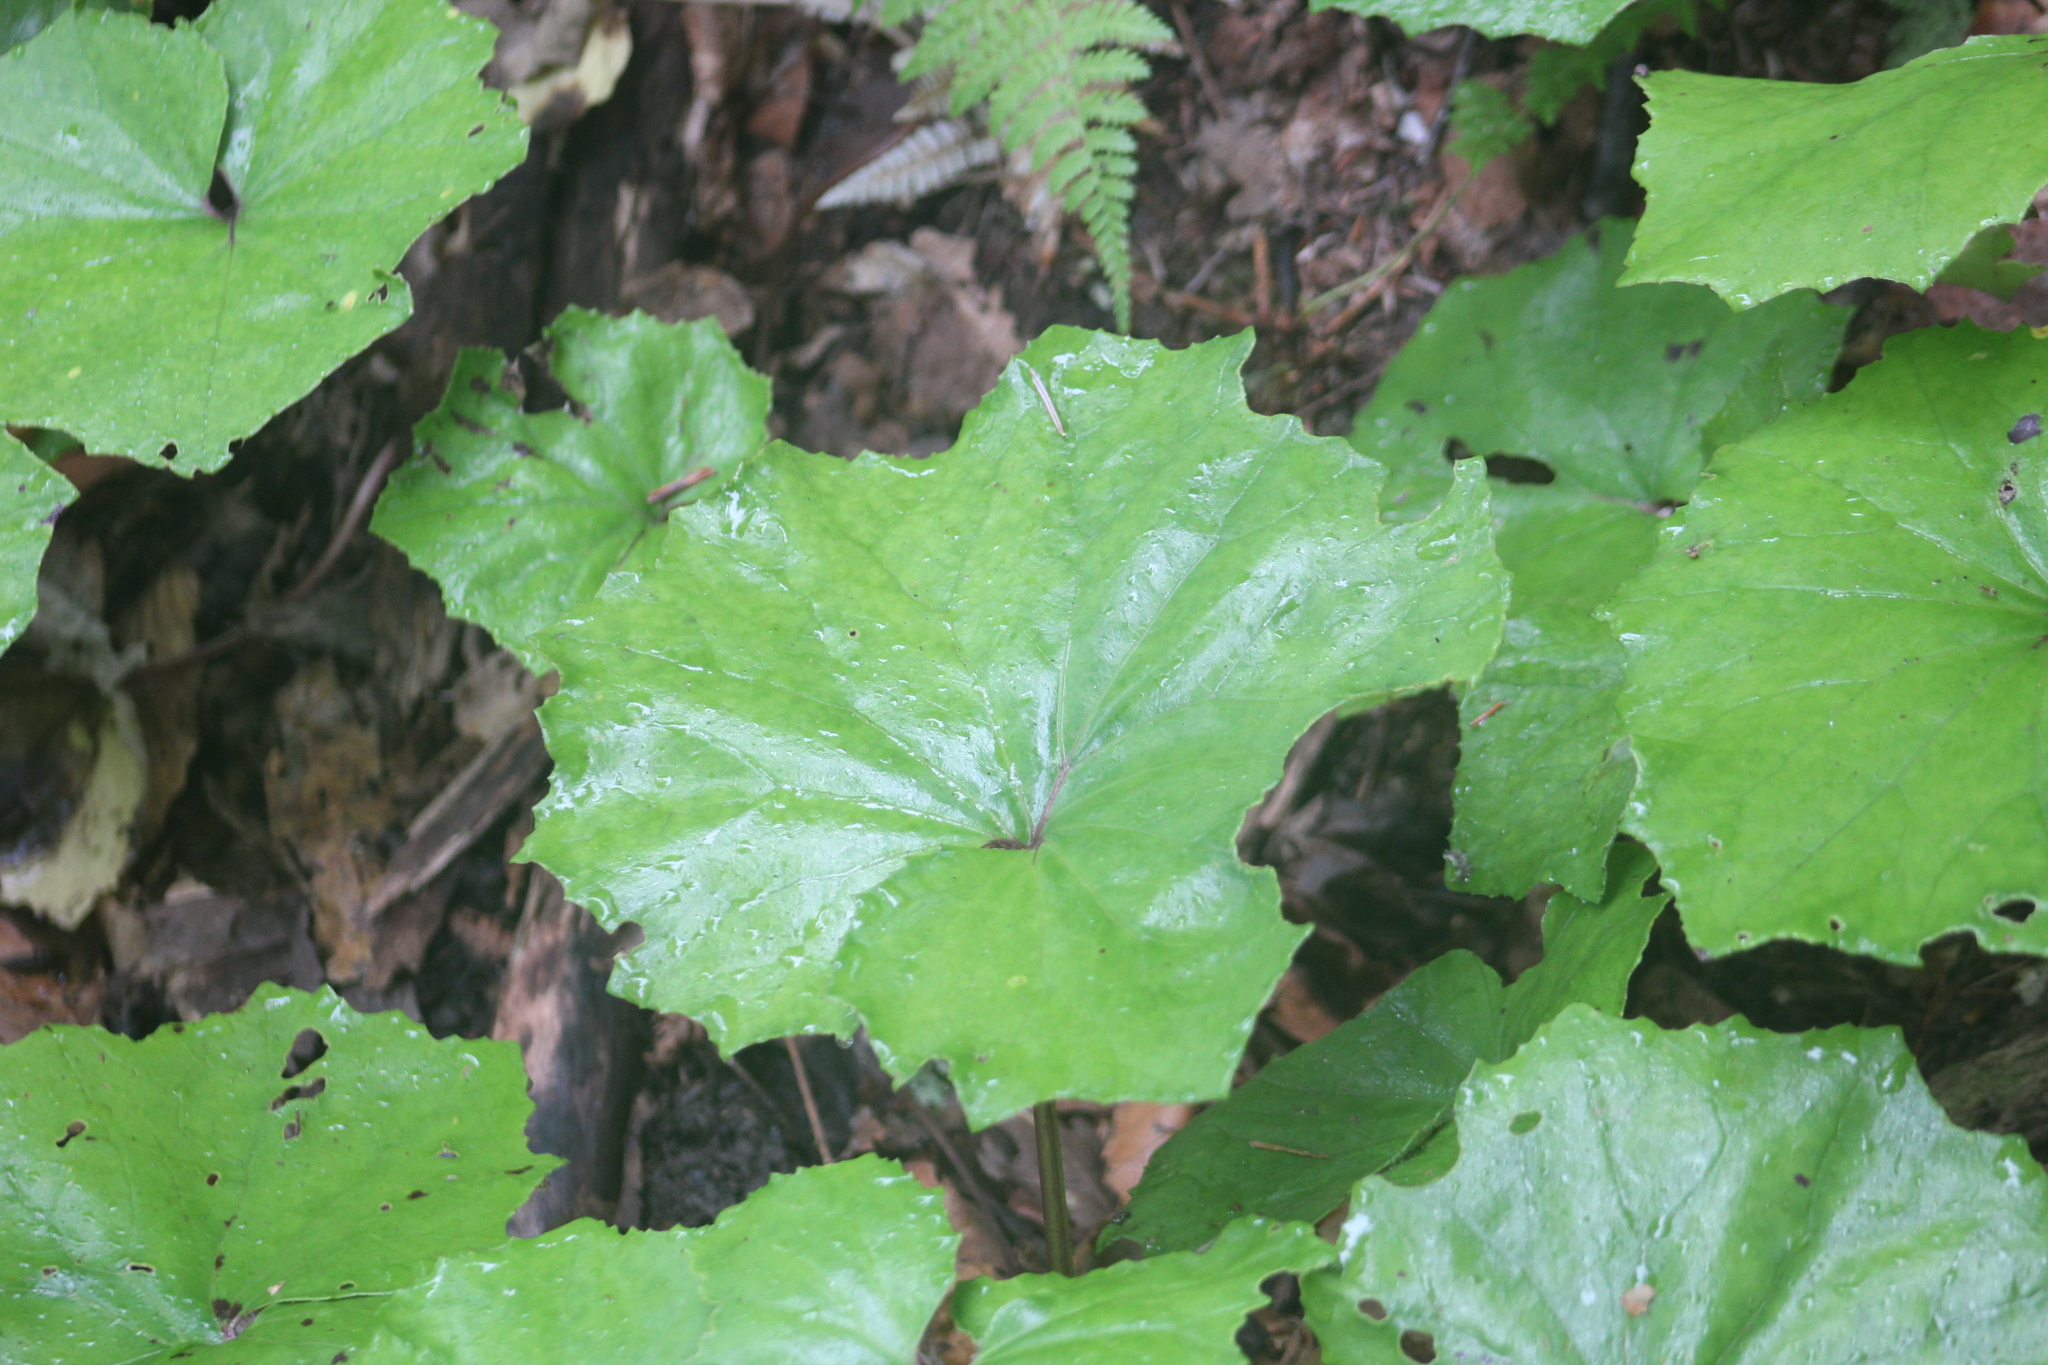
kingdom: Plantae
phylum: Tracheophyta
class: Magnoliopsida
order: Asterales
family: Asteraceae
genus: Tussilago
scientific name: Tussilago farfara
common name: Coltsfoot
